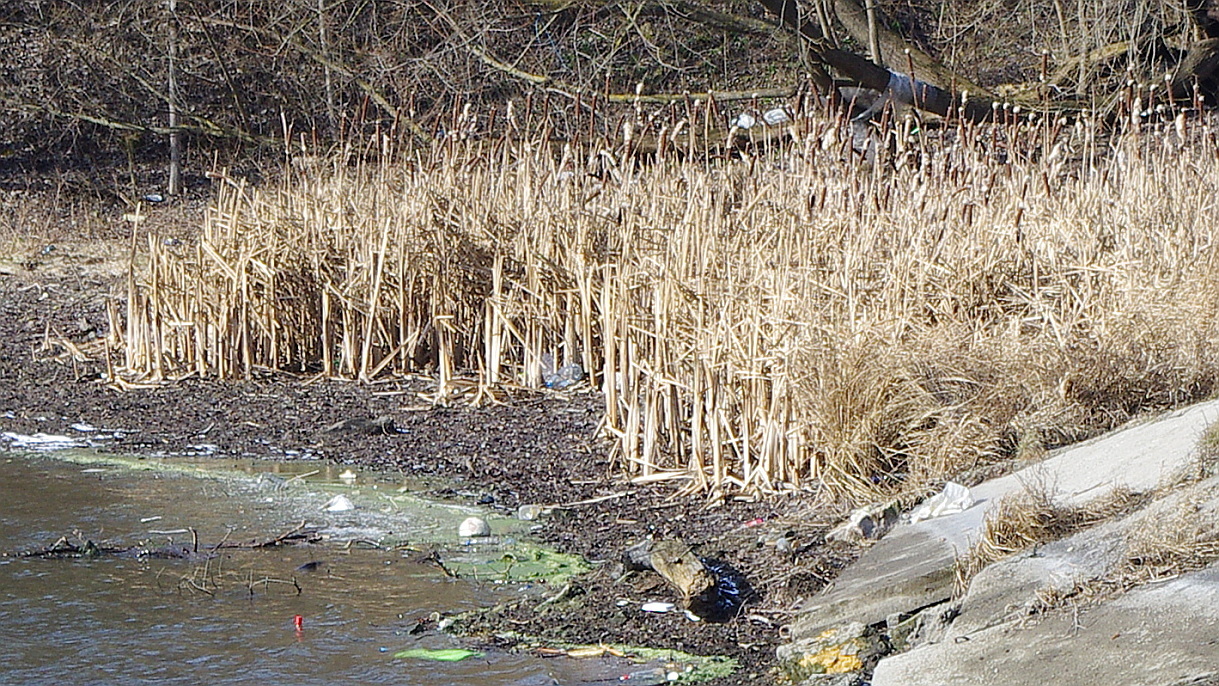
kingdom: Plantae
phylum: Tracheophyta
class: Liliopsida
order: Poales
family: Typhaceae
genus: Typha
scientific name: Typha latifolia
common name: Broadleaf cattail
